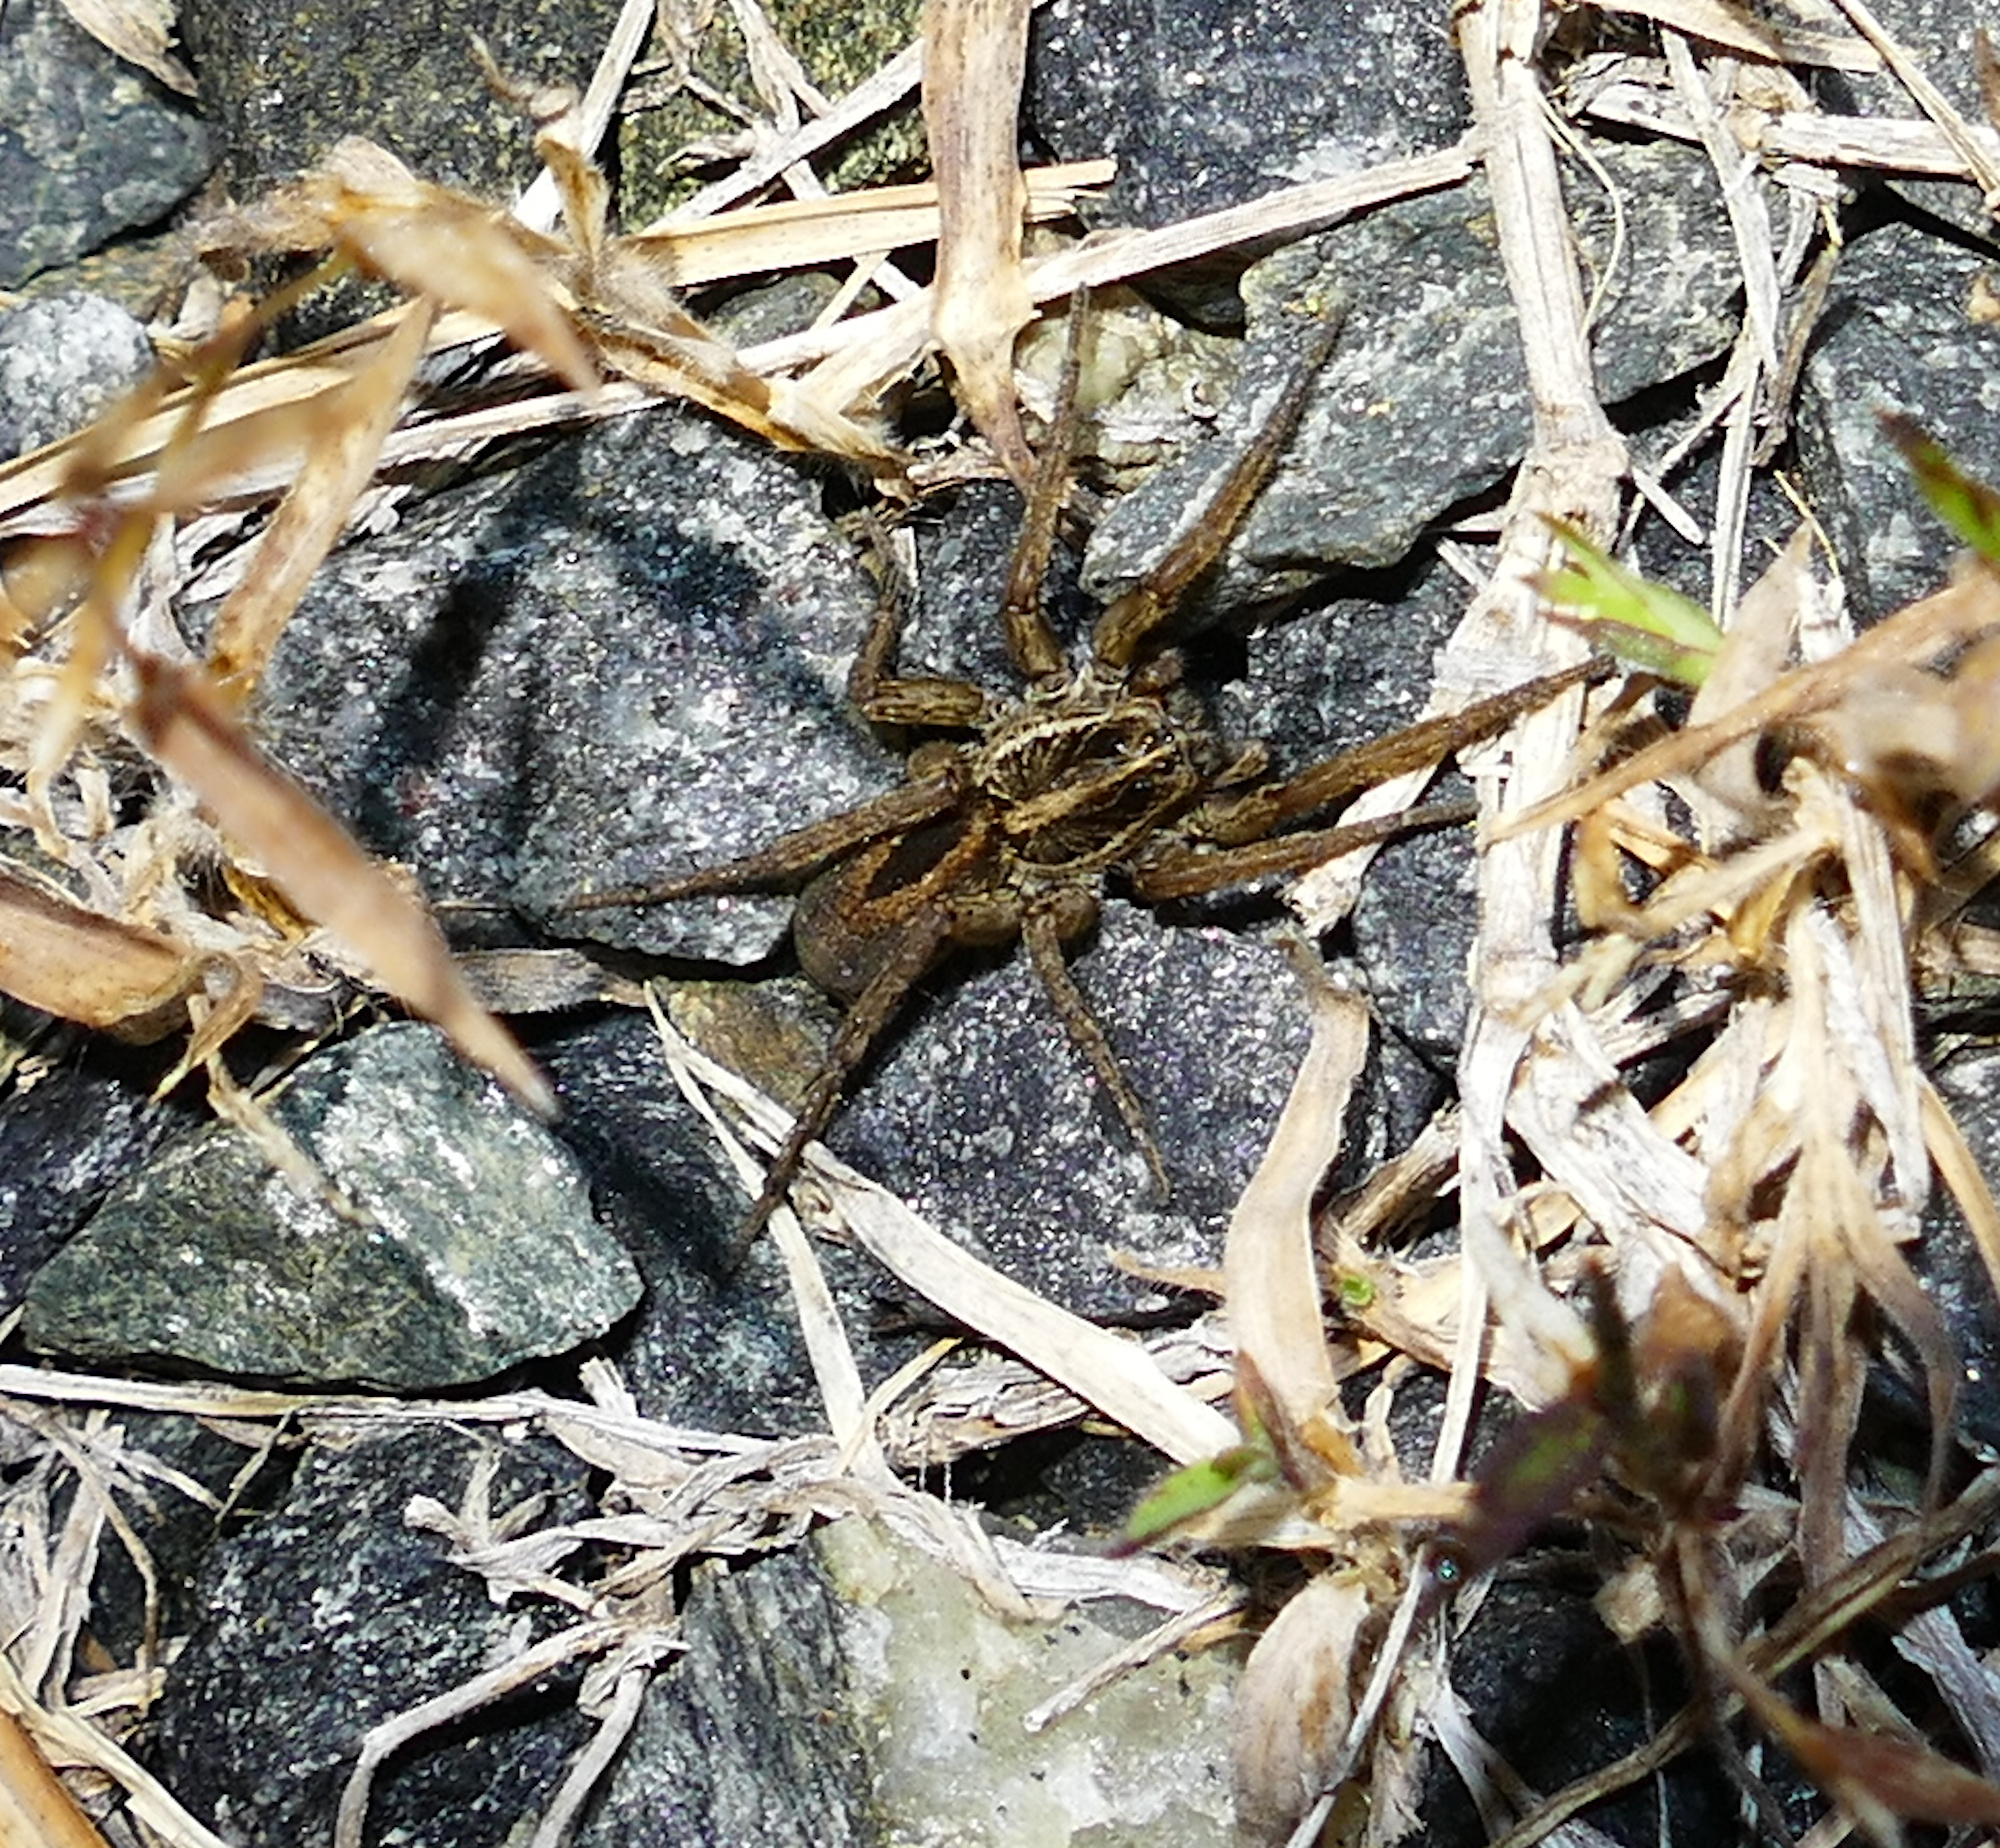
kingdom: Animalia
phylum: Arthropoda
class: Arachnida
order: Araneae
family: Lycosidae
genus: Tigrosa
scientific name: Tigrosa annexa
